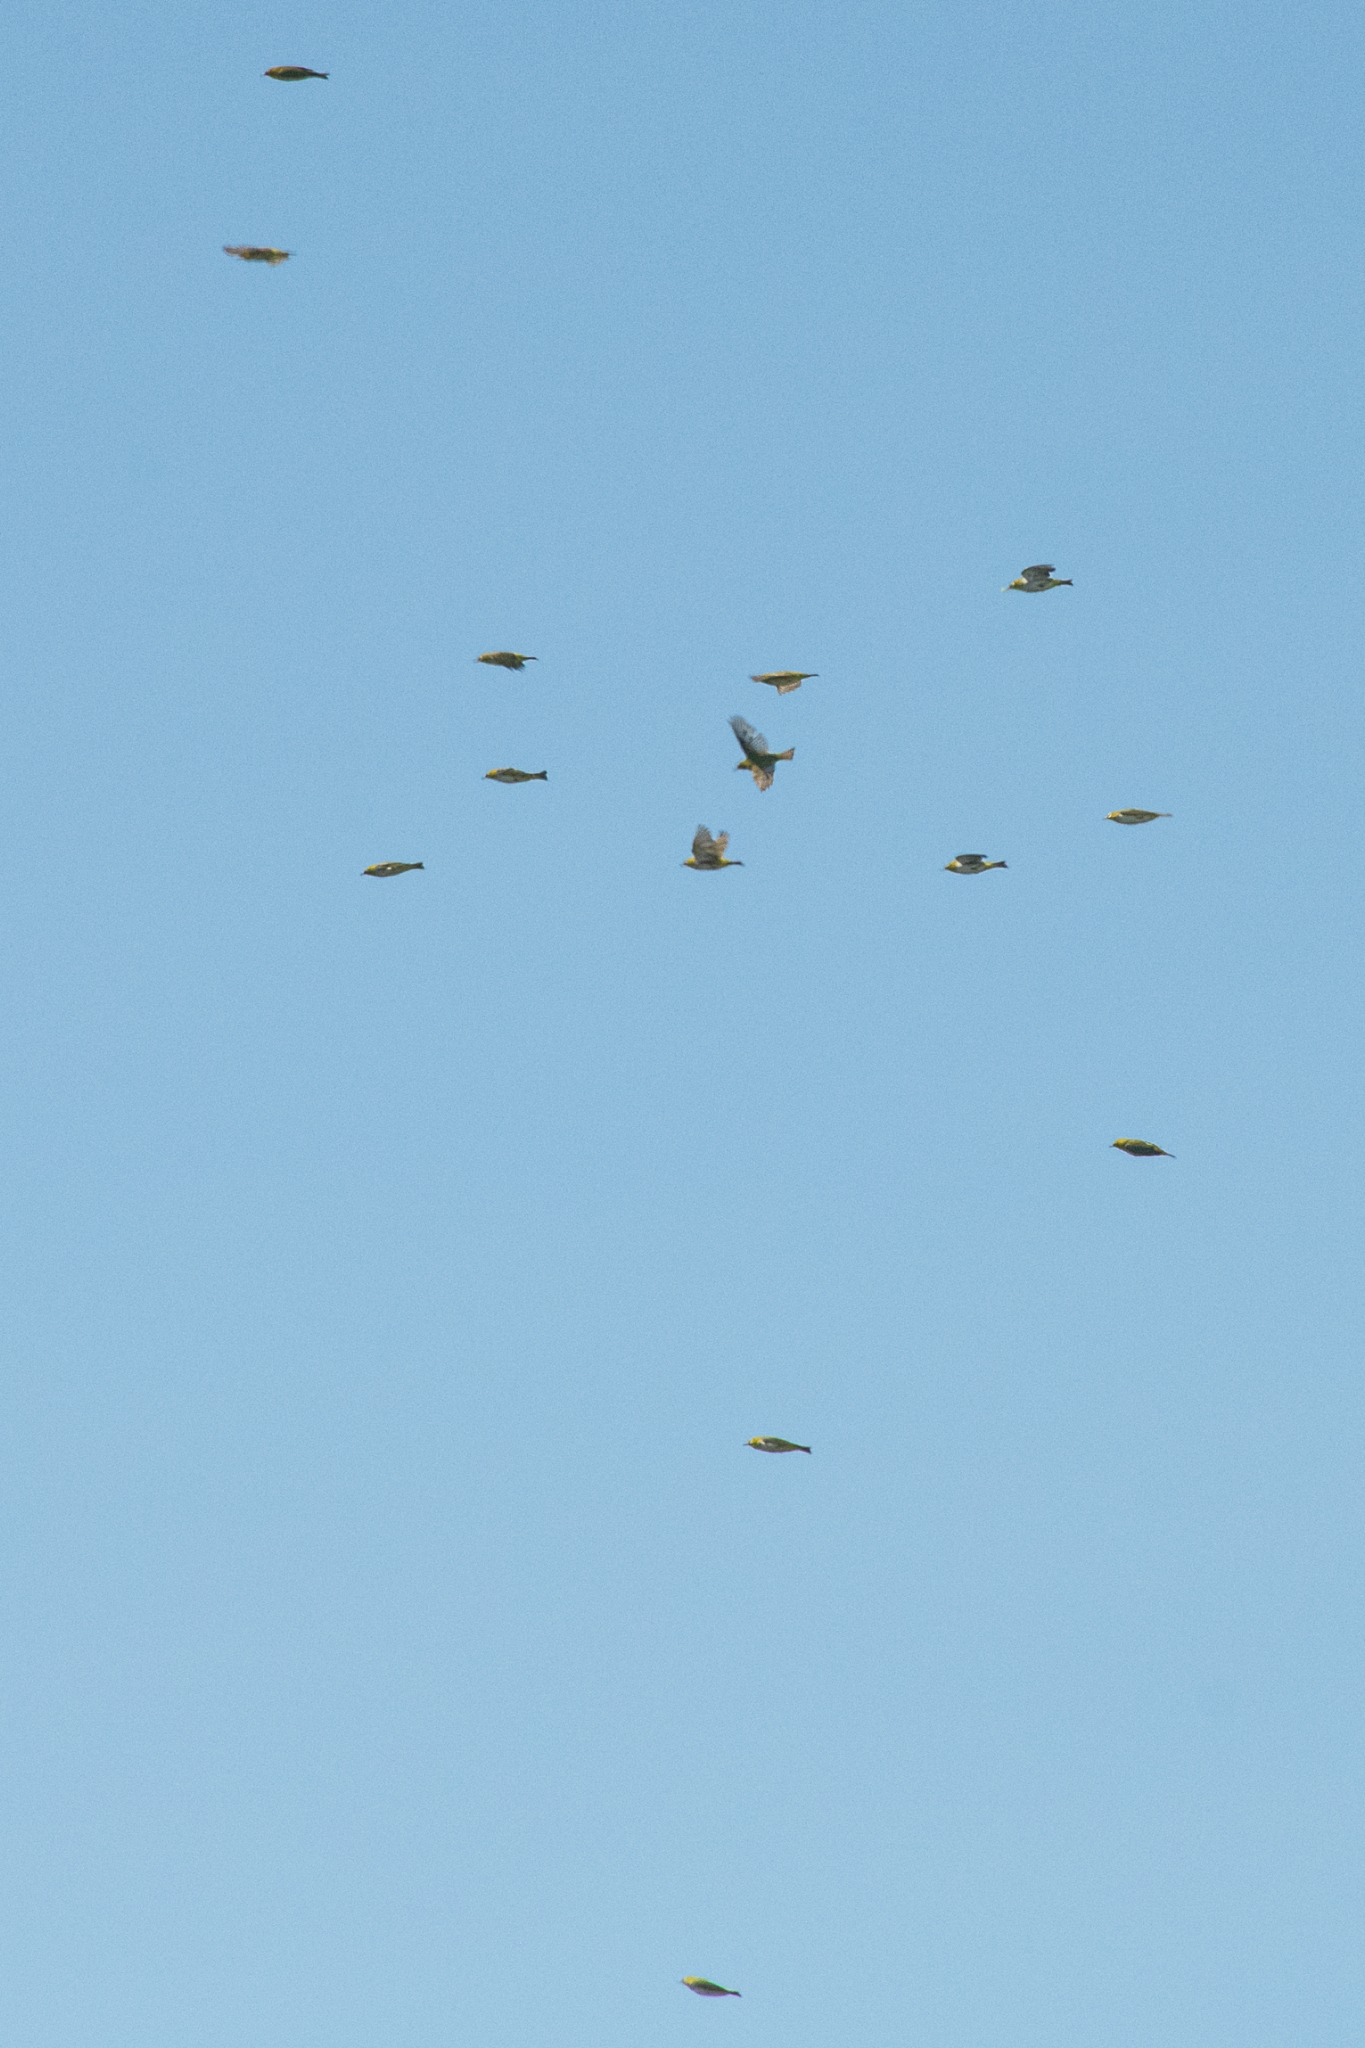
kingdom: Animalia
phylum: Chordata
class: Aves
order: Passeriformes
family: Zosteropidae
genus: Zosterops
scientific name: Zosterops erythropleurus
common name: Chestnut-flanked white-eye
